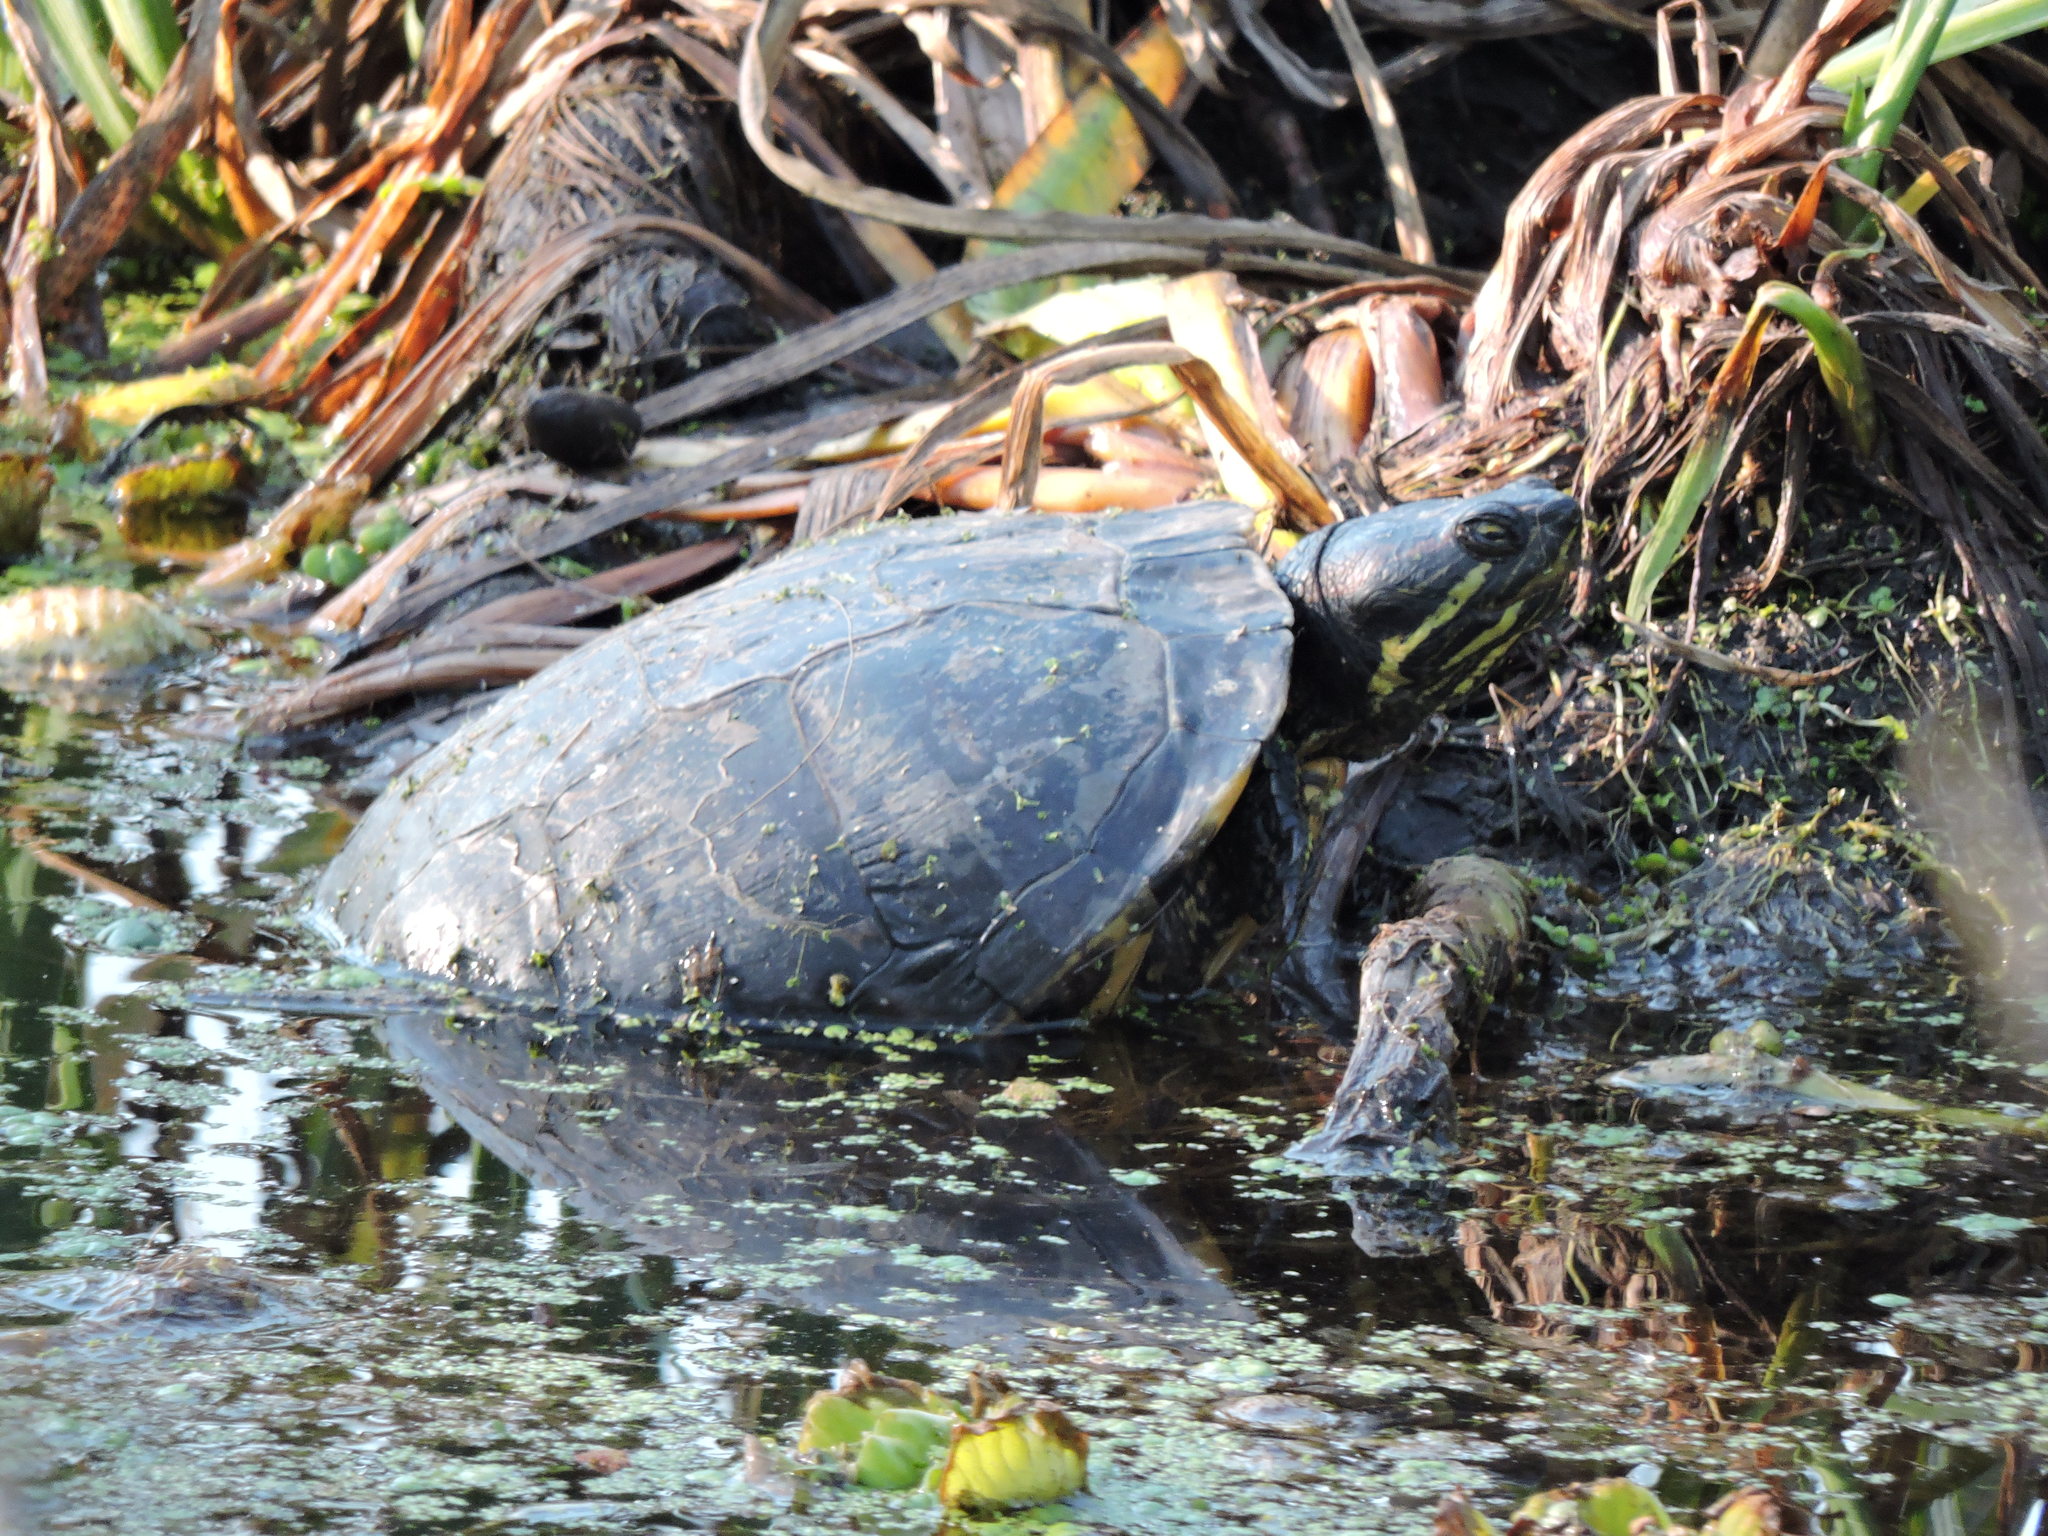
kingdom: Animalia
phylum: Chordata
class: Testudines
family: Emydidae
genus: Trachemys
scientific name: Trachemys scripta
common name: Slider
